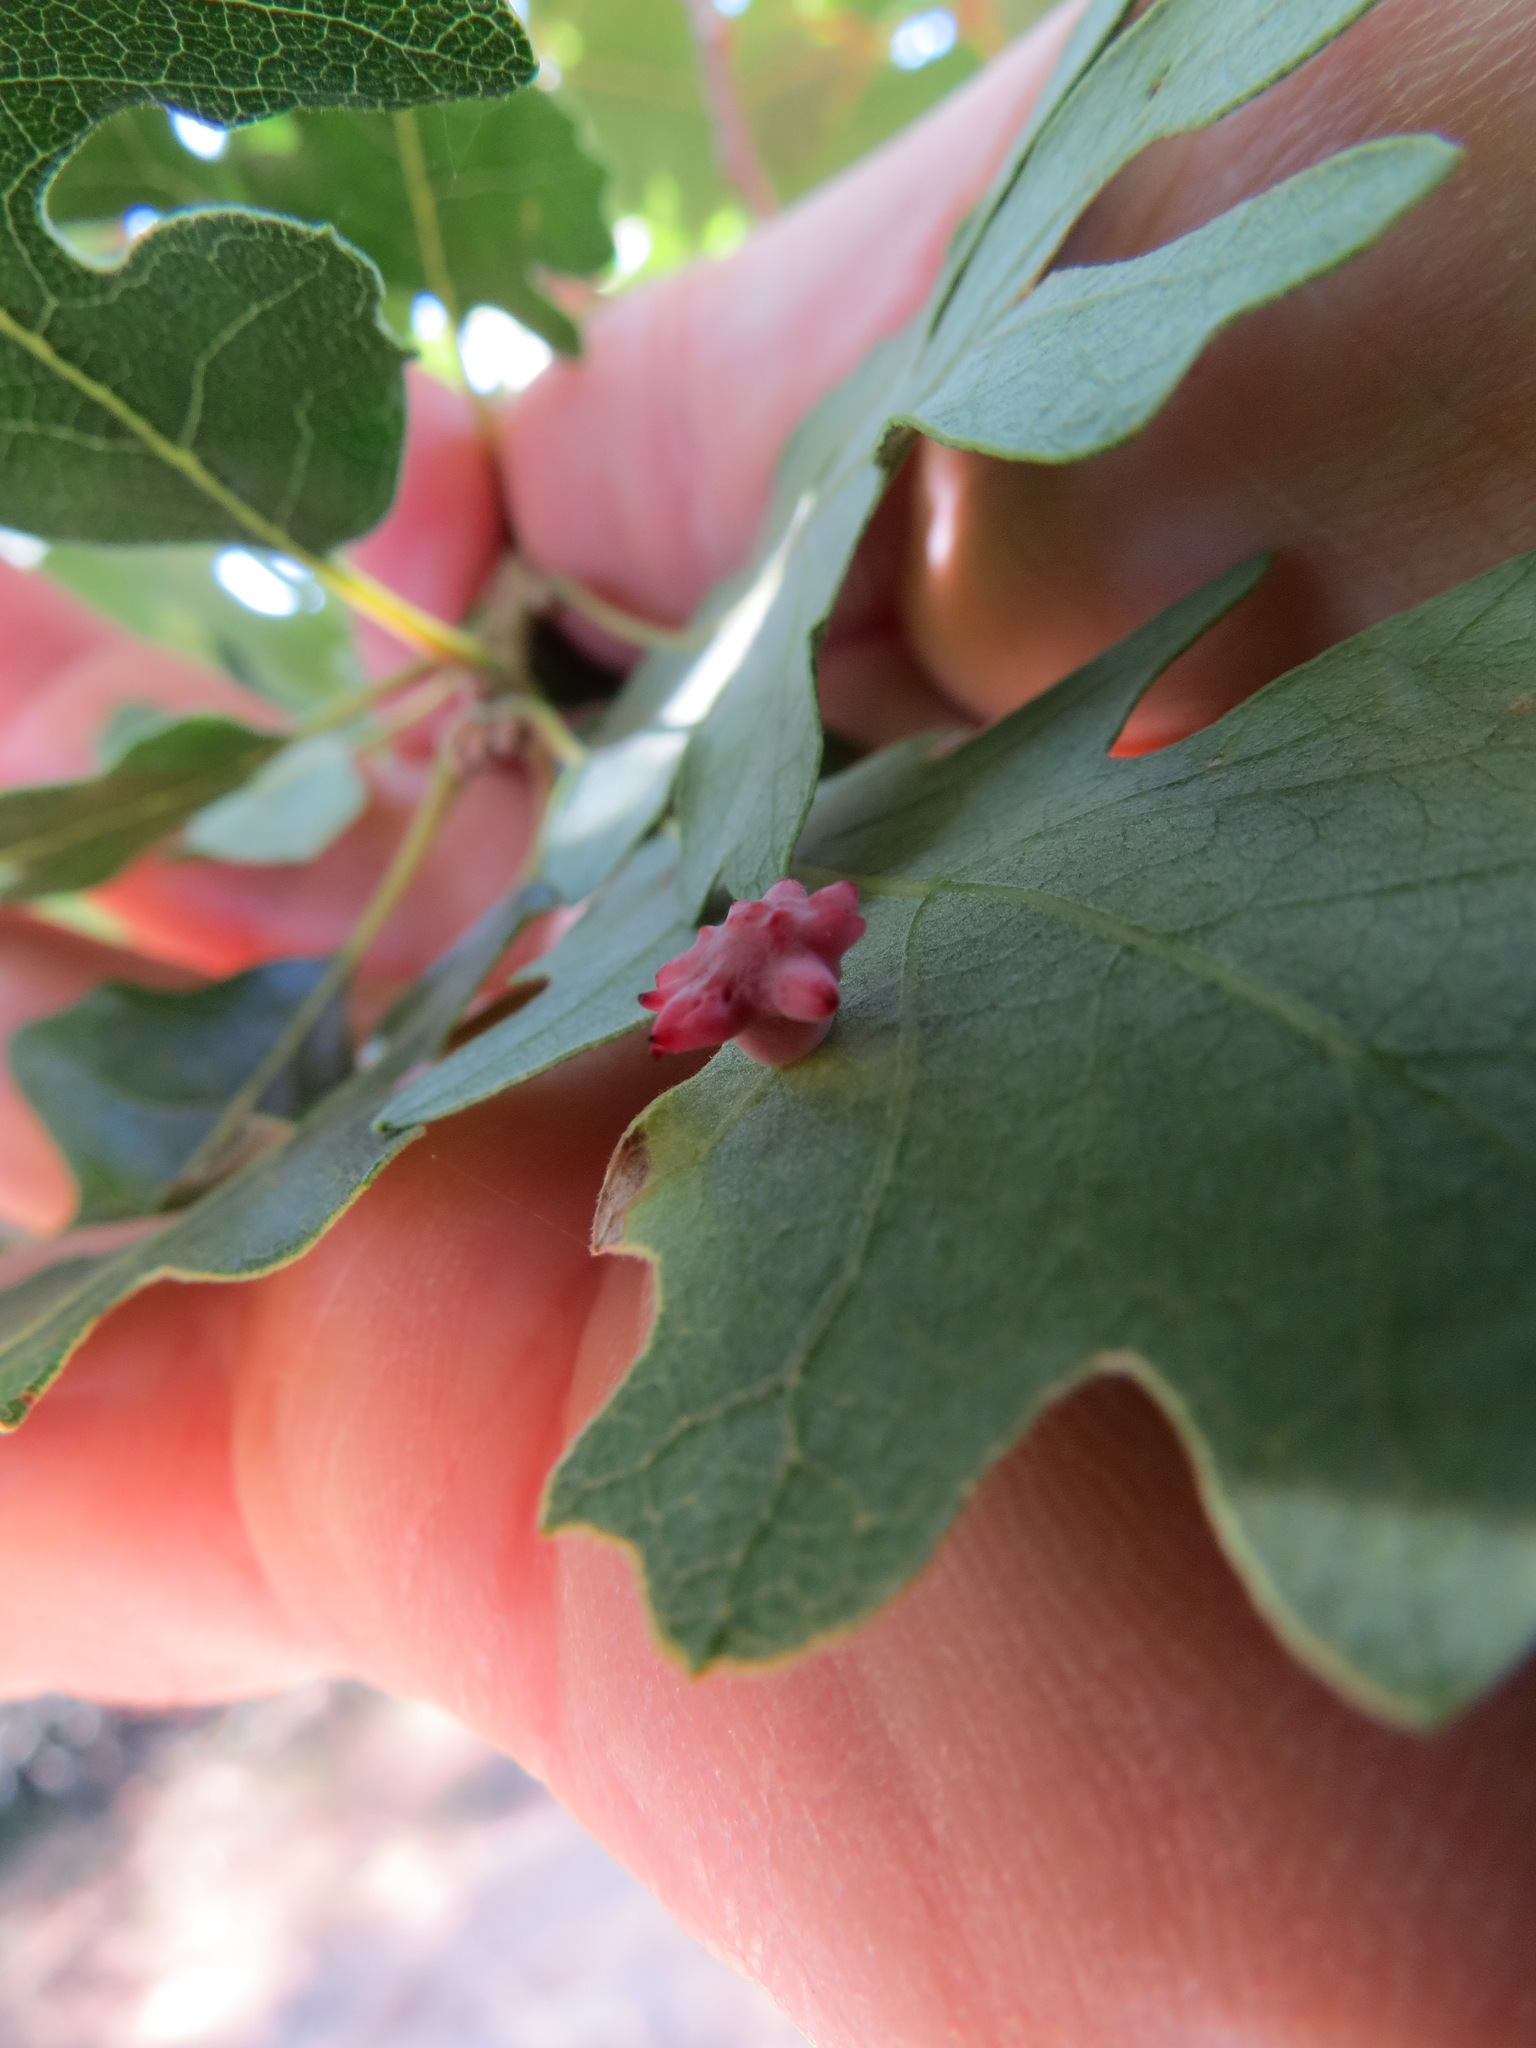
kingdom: Animalia
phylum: Arthropoda
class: Insecta
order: Hymenoptera
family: Cynipidae
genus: Cynips
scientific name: Cynips douglasi
